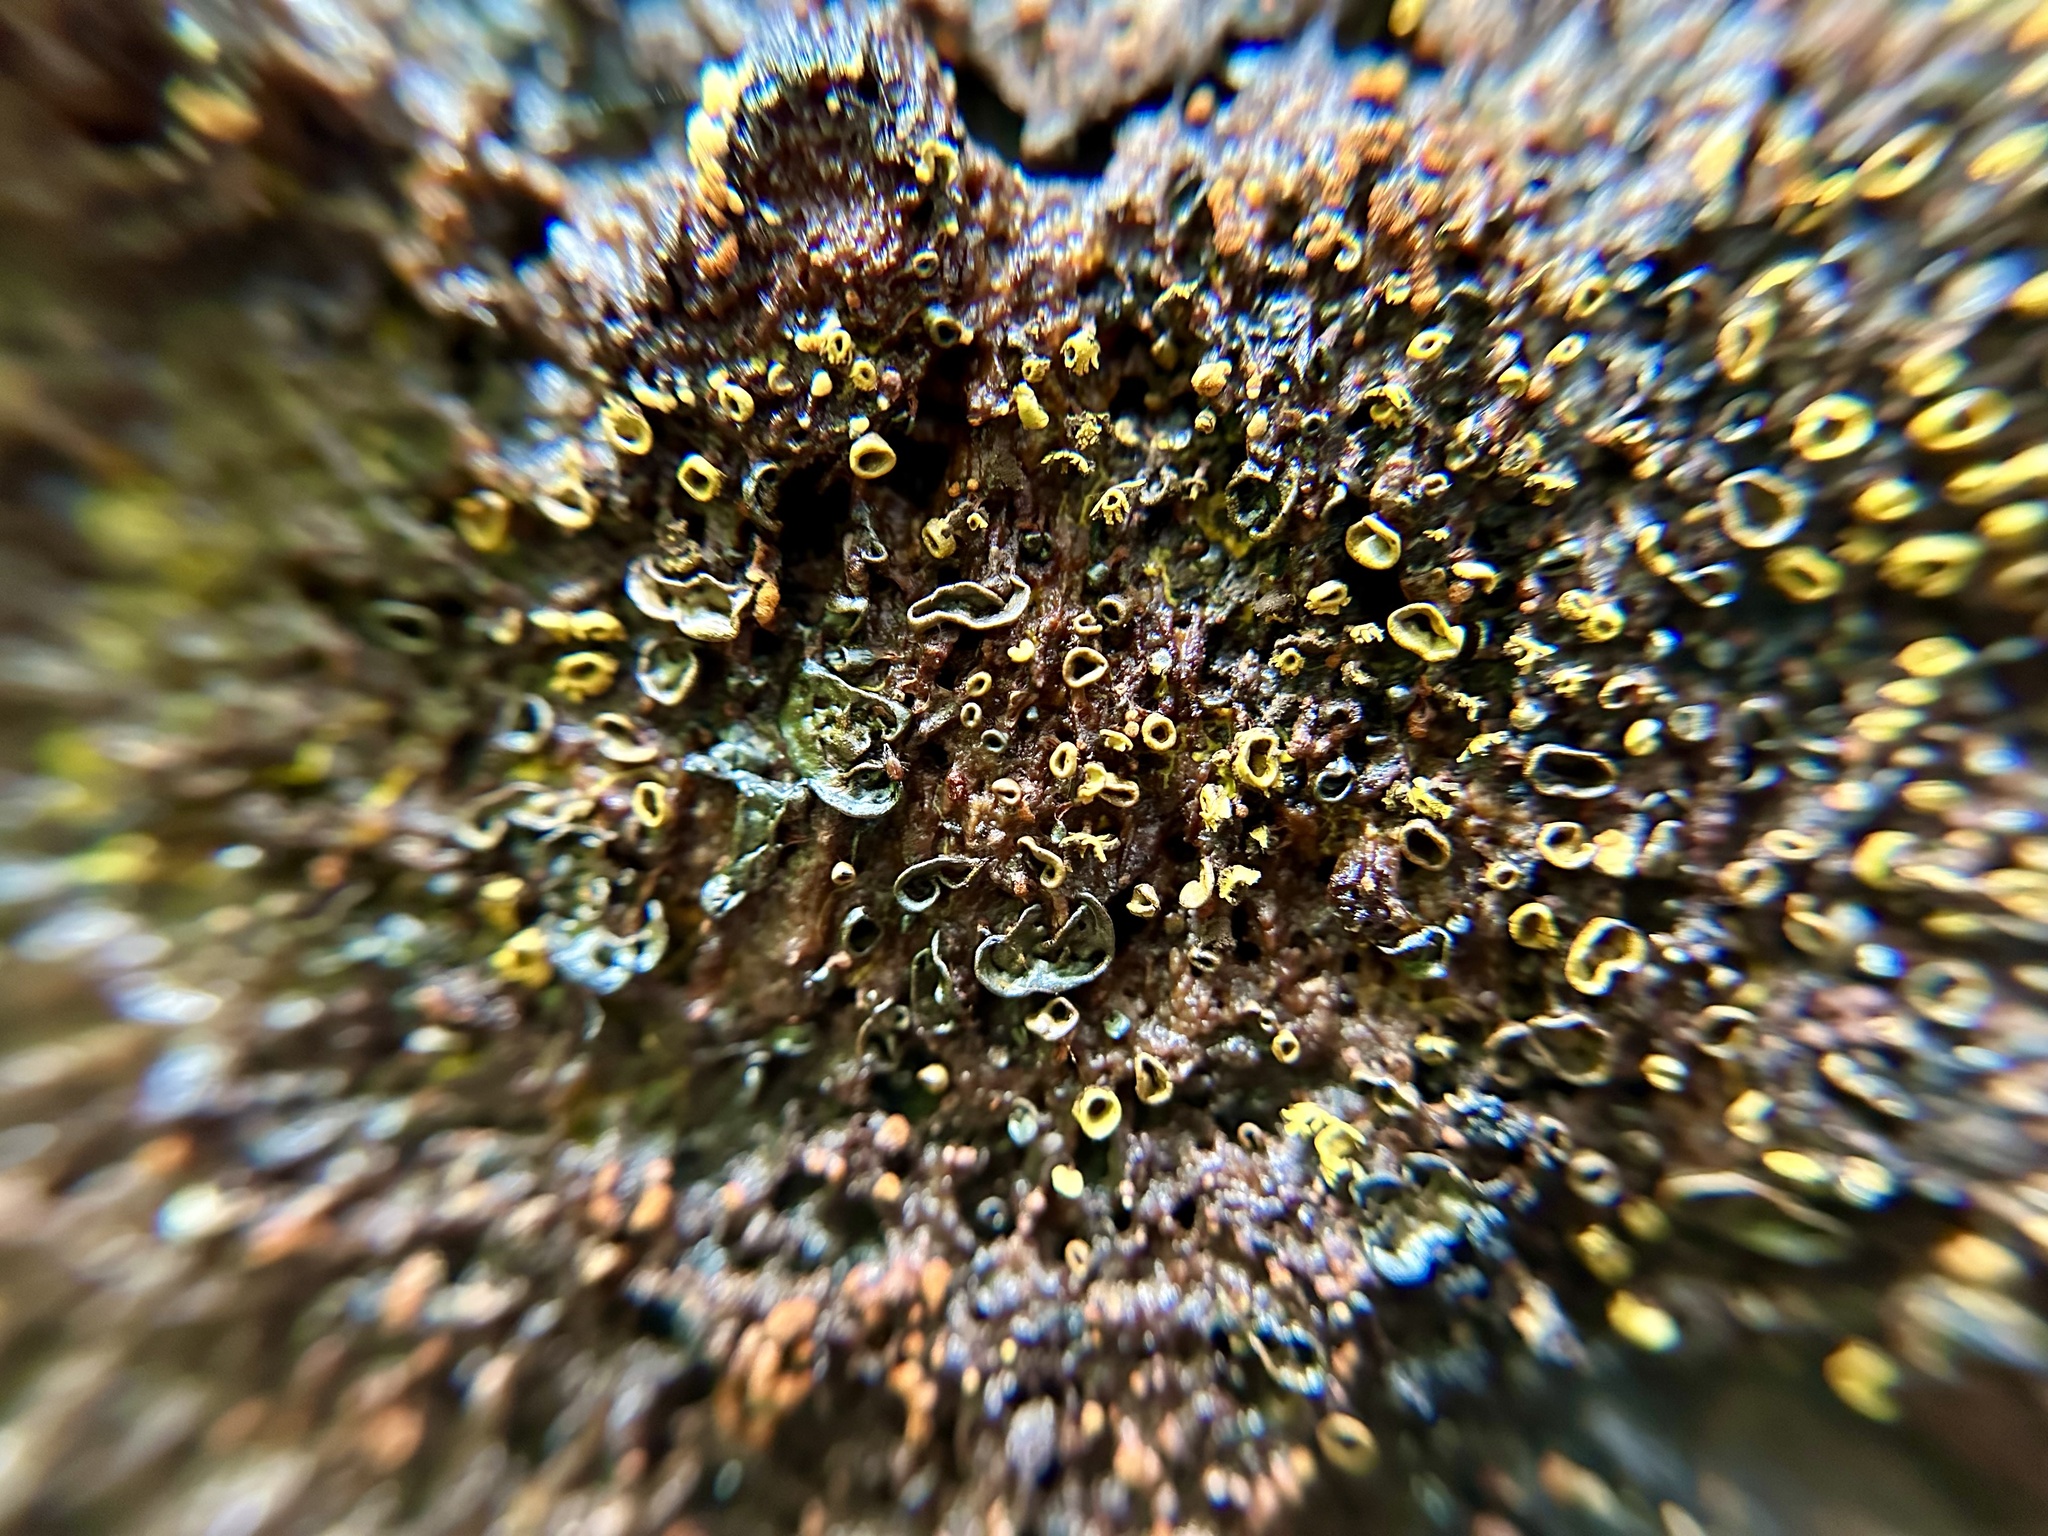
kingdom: Protozoa
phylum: Mycetozoa
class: Myxomycetes
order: Physarales
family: Physaraceae
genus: Physarella
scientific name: Physarella oblonga
